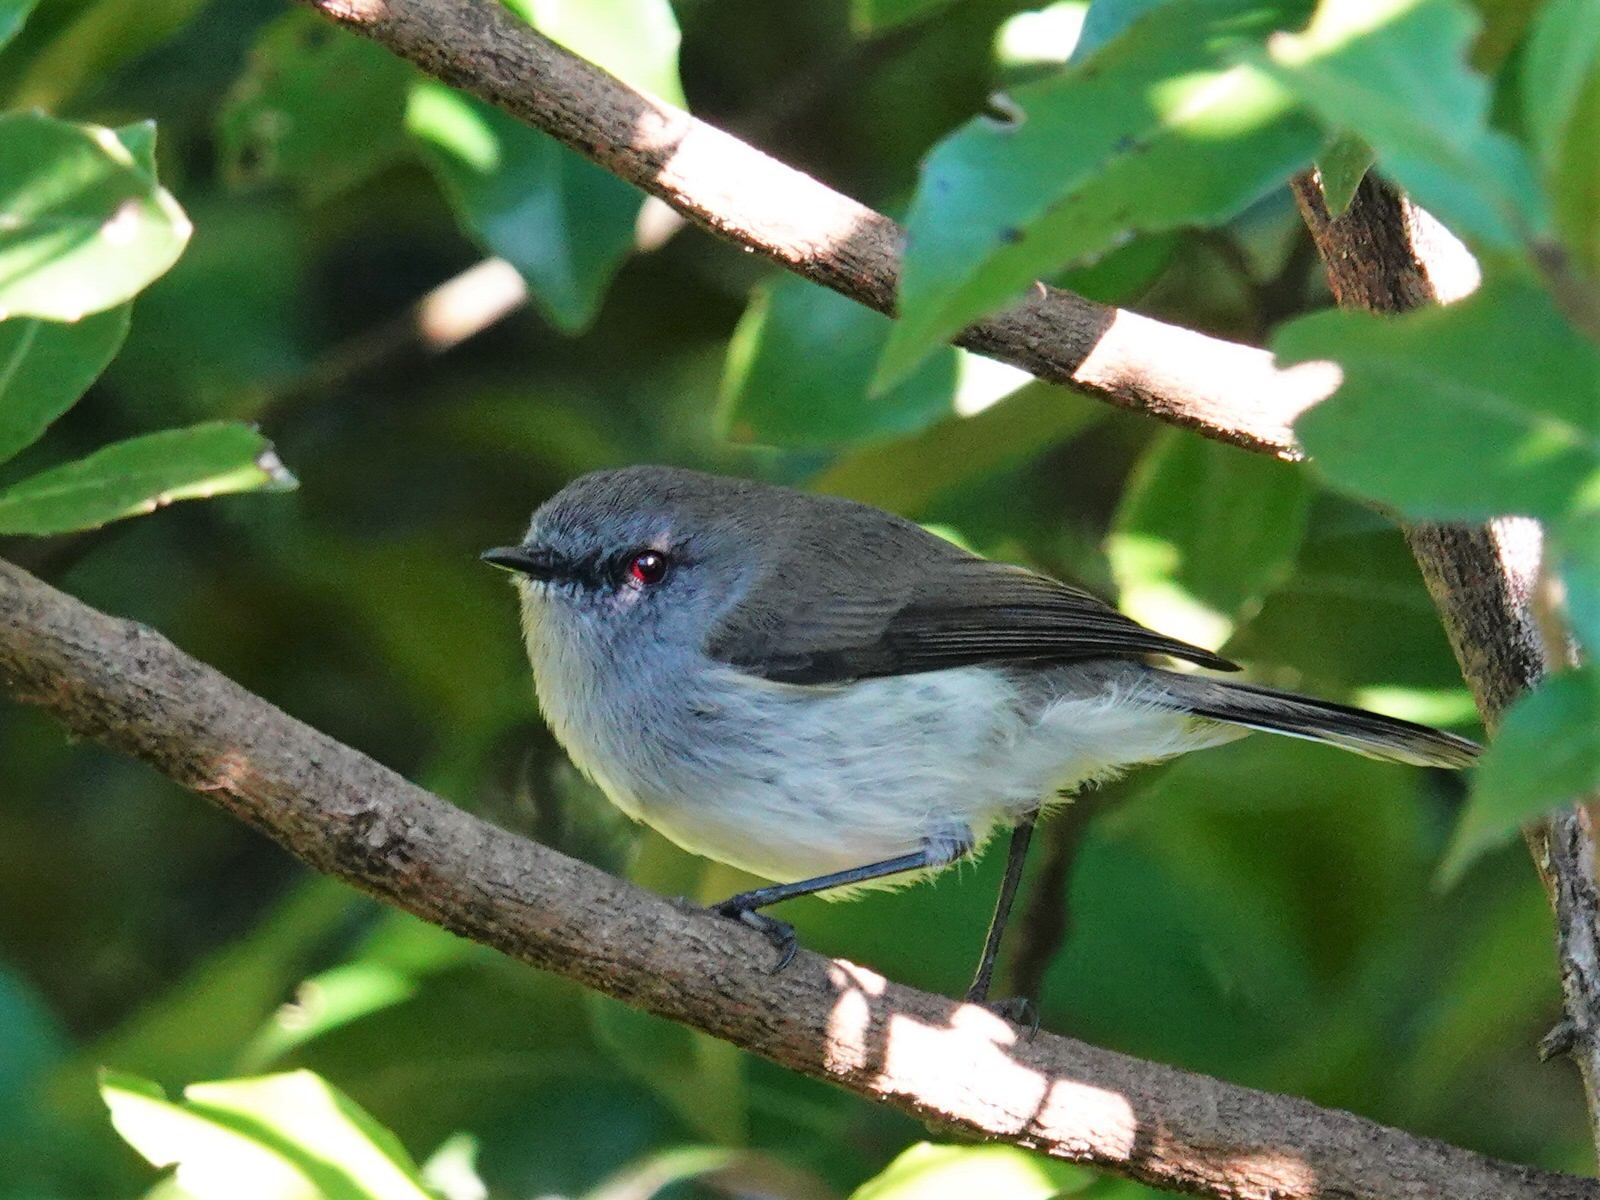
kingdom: Animalia
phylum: Chordata
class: Aves
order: Passeriformes
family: Acanthizidae
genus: Gerygone
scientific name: Gerygone igata
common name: Grey gerygone
